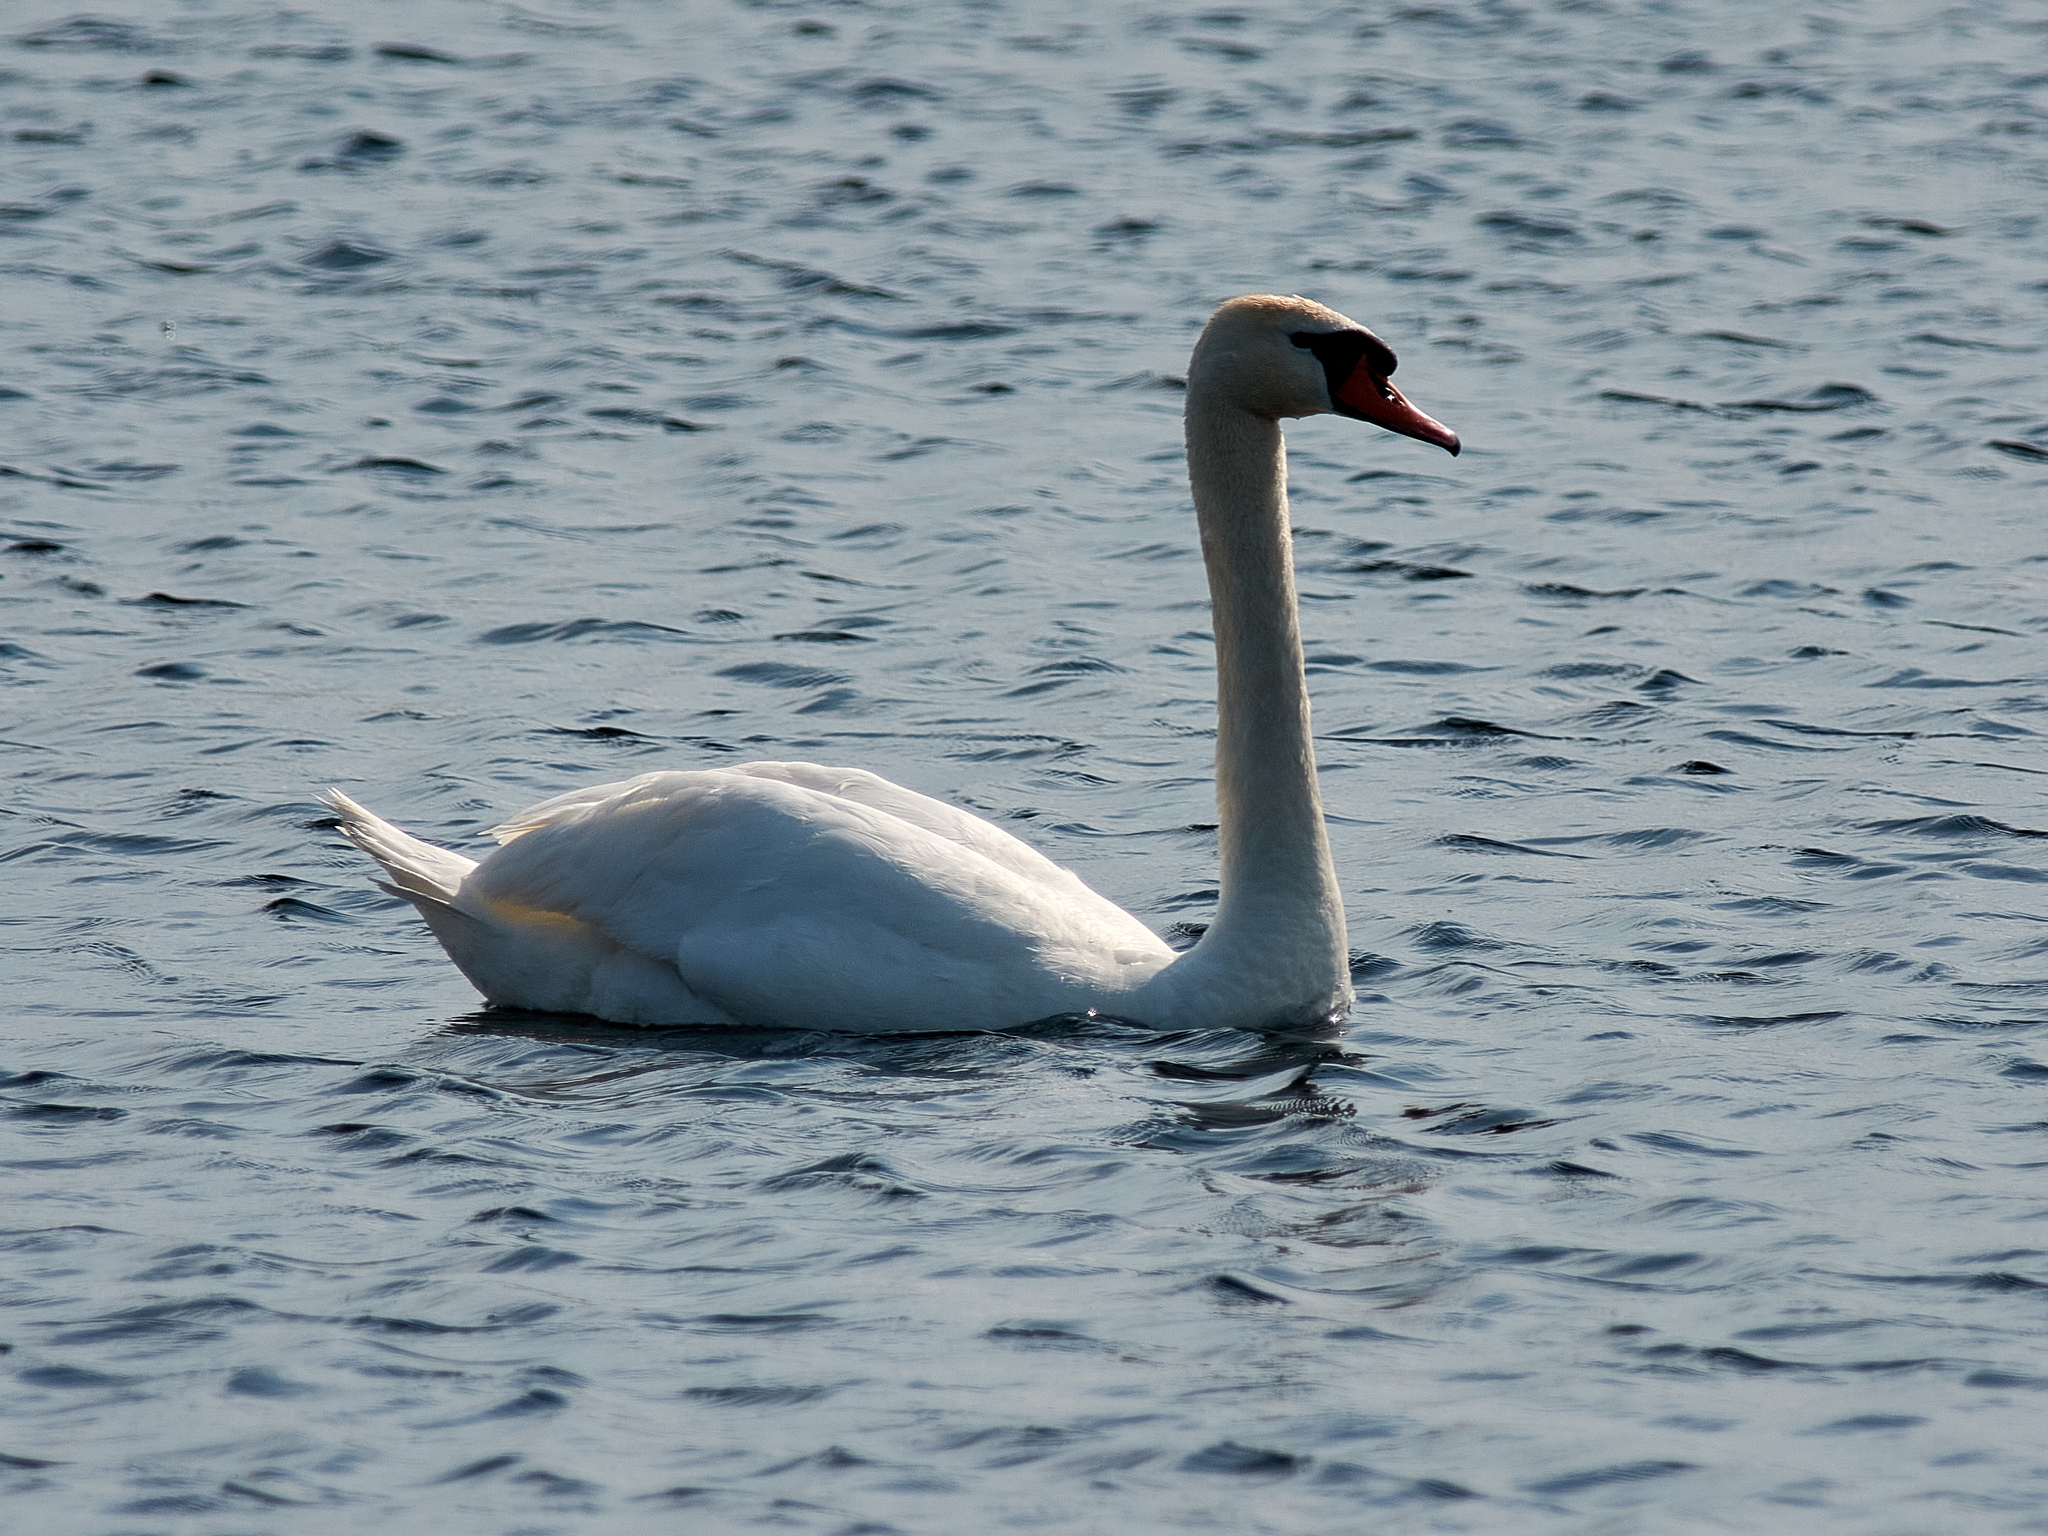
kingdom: Animalia
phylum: Chordata
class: Aves
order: Anseriformes
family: Anatidae
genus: Cygnus
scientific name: Cygnus olor
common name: Mute swan
